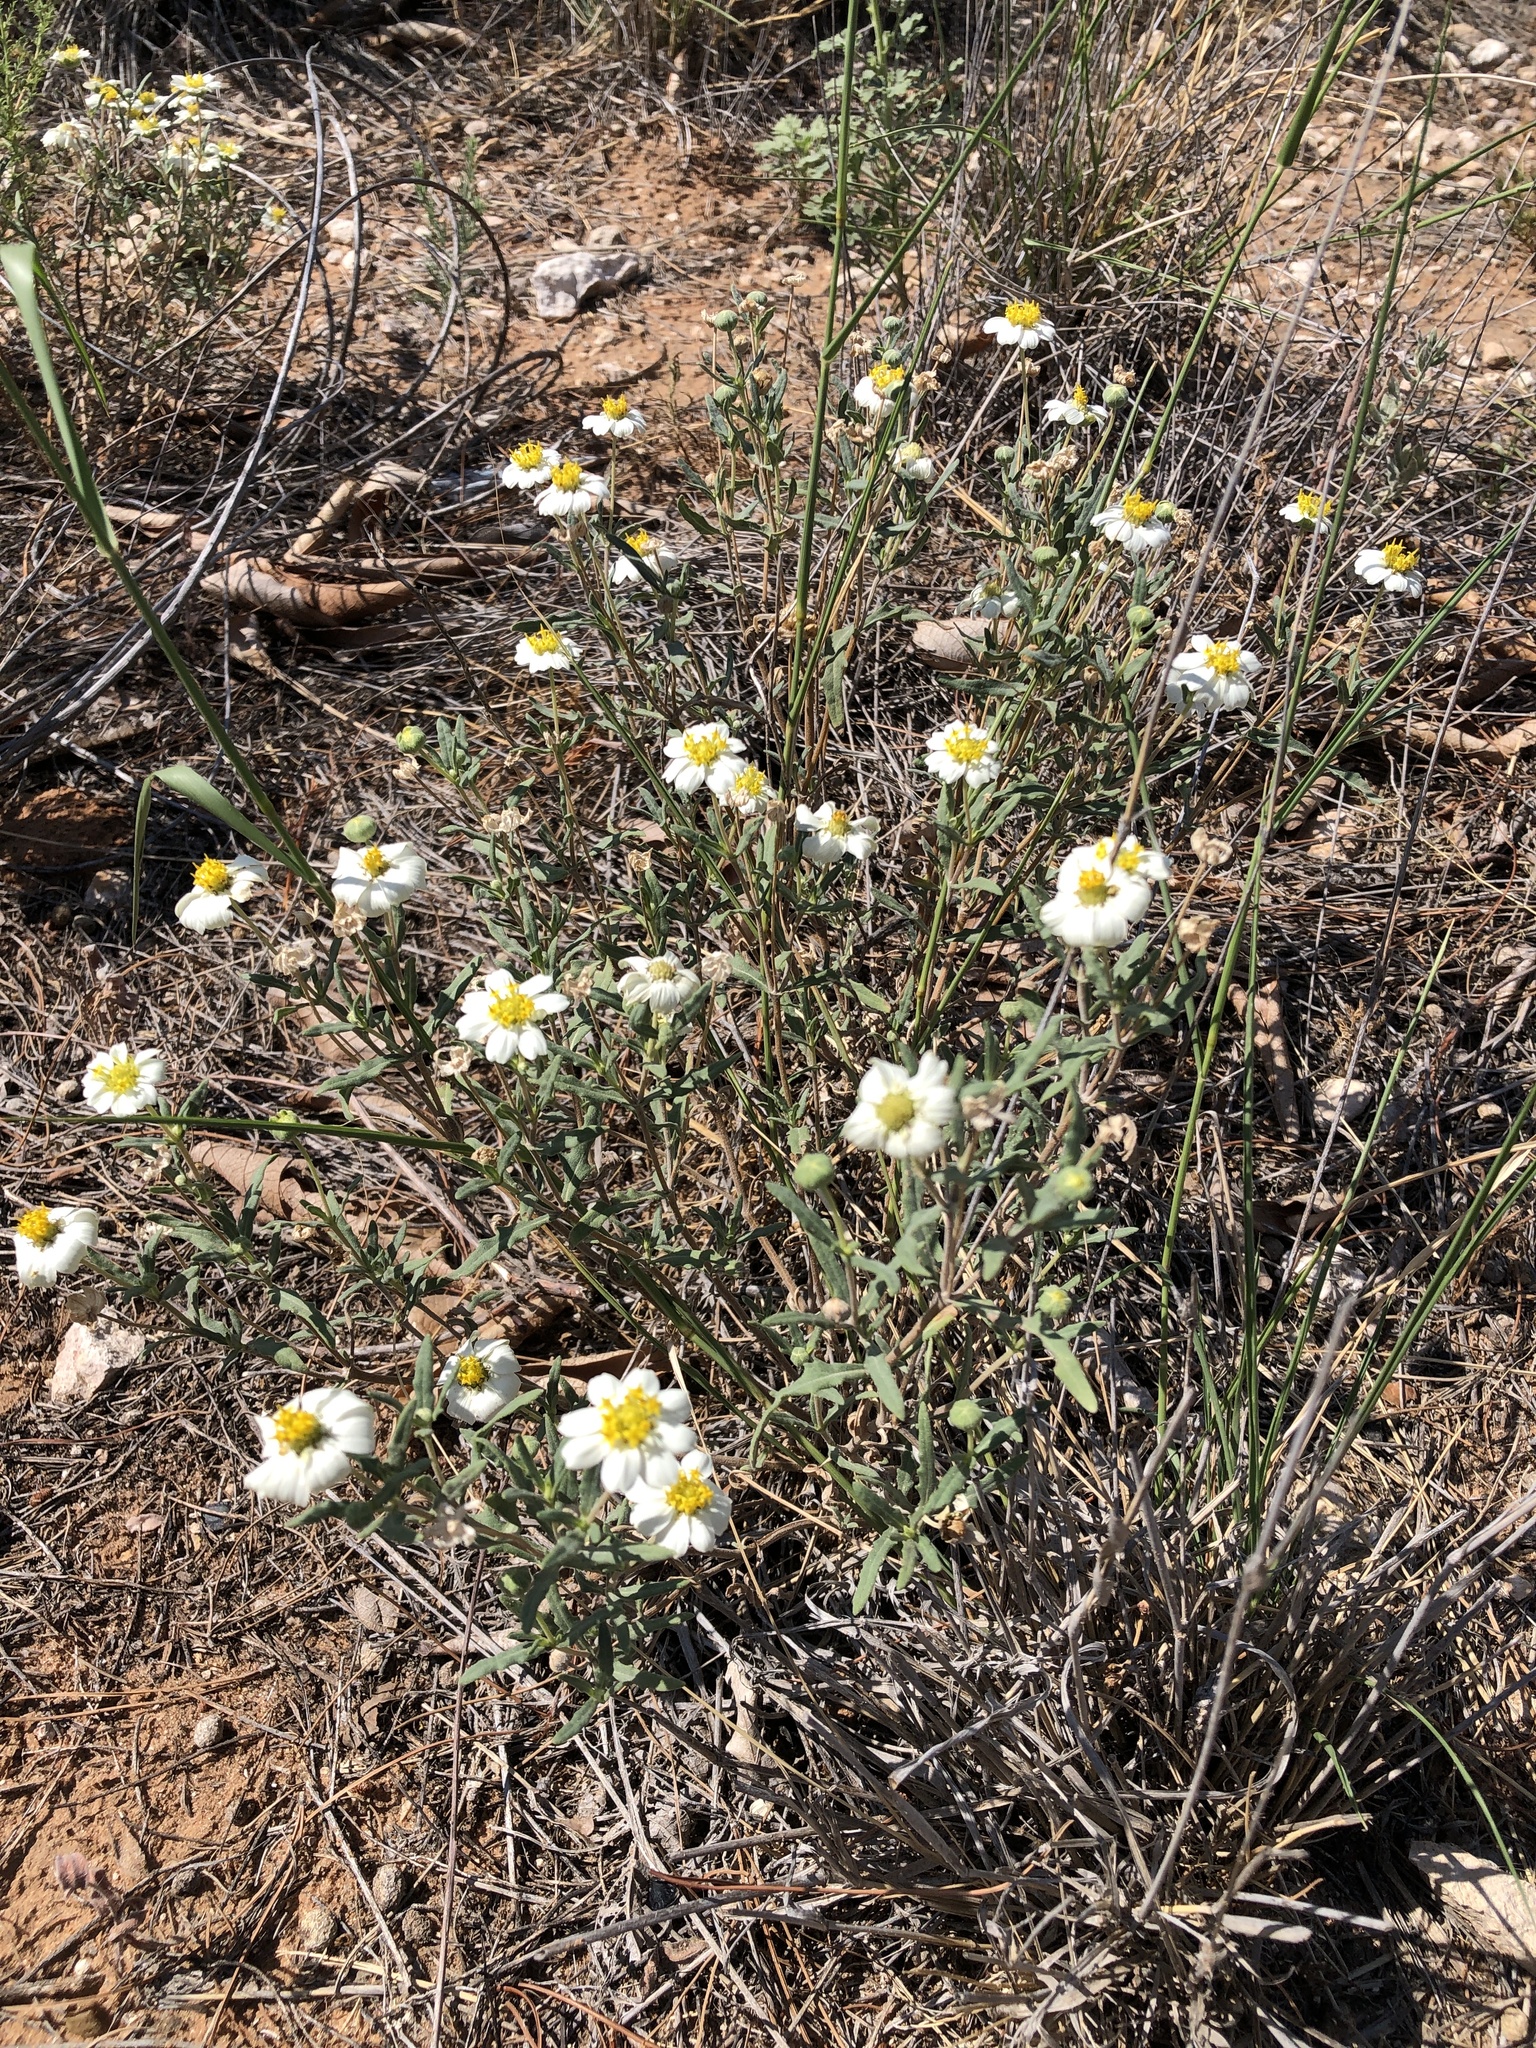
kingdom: Plantae
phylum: Tracheophyta
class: Magnoliopsida
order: Asterales
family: Asteraceae
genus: Melampodium
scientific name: Melampodium leucanthum
